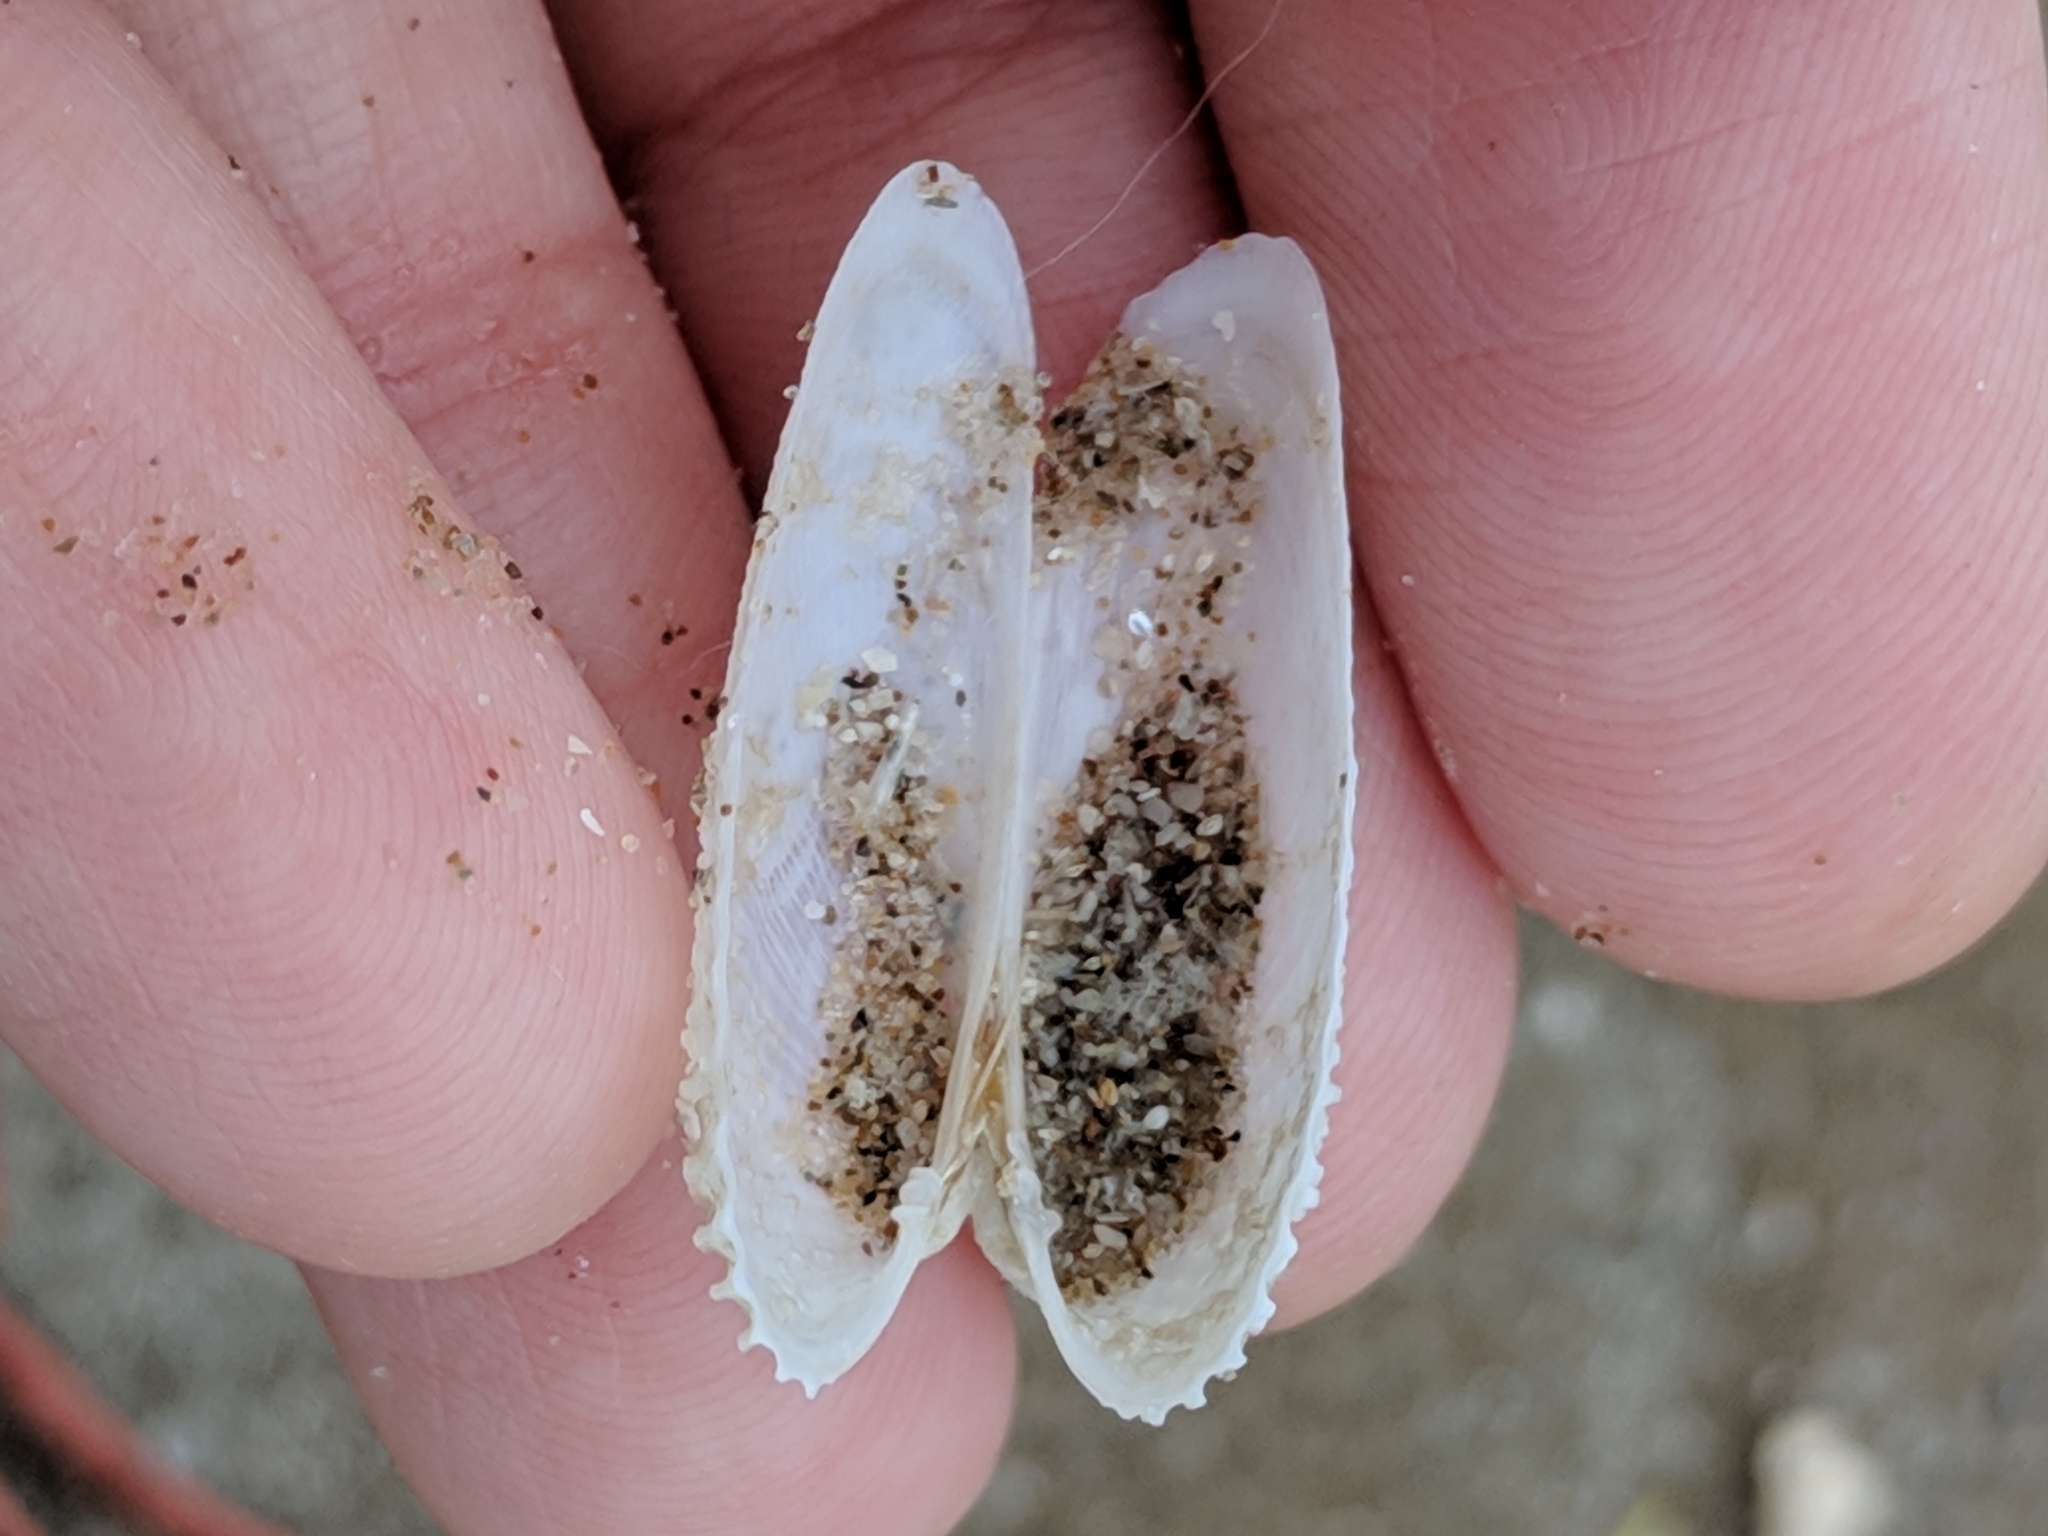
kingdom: Animalia
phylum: Mollusca
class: Bivalvia
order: Venerida
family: Veneridae
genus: Petricolaria
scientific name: Petricolaria pholadiformis
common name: American piddock
